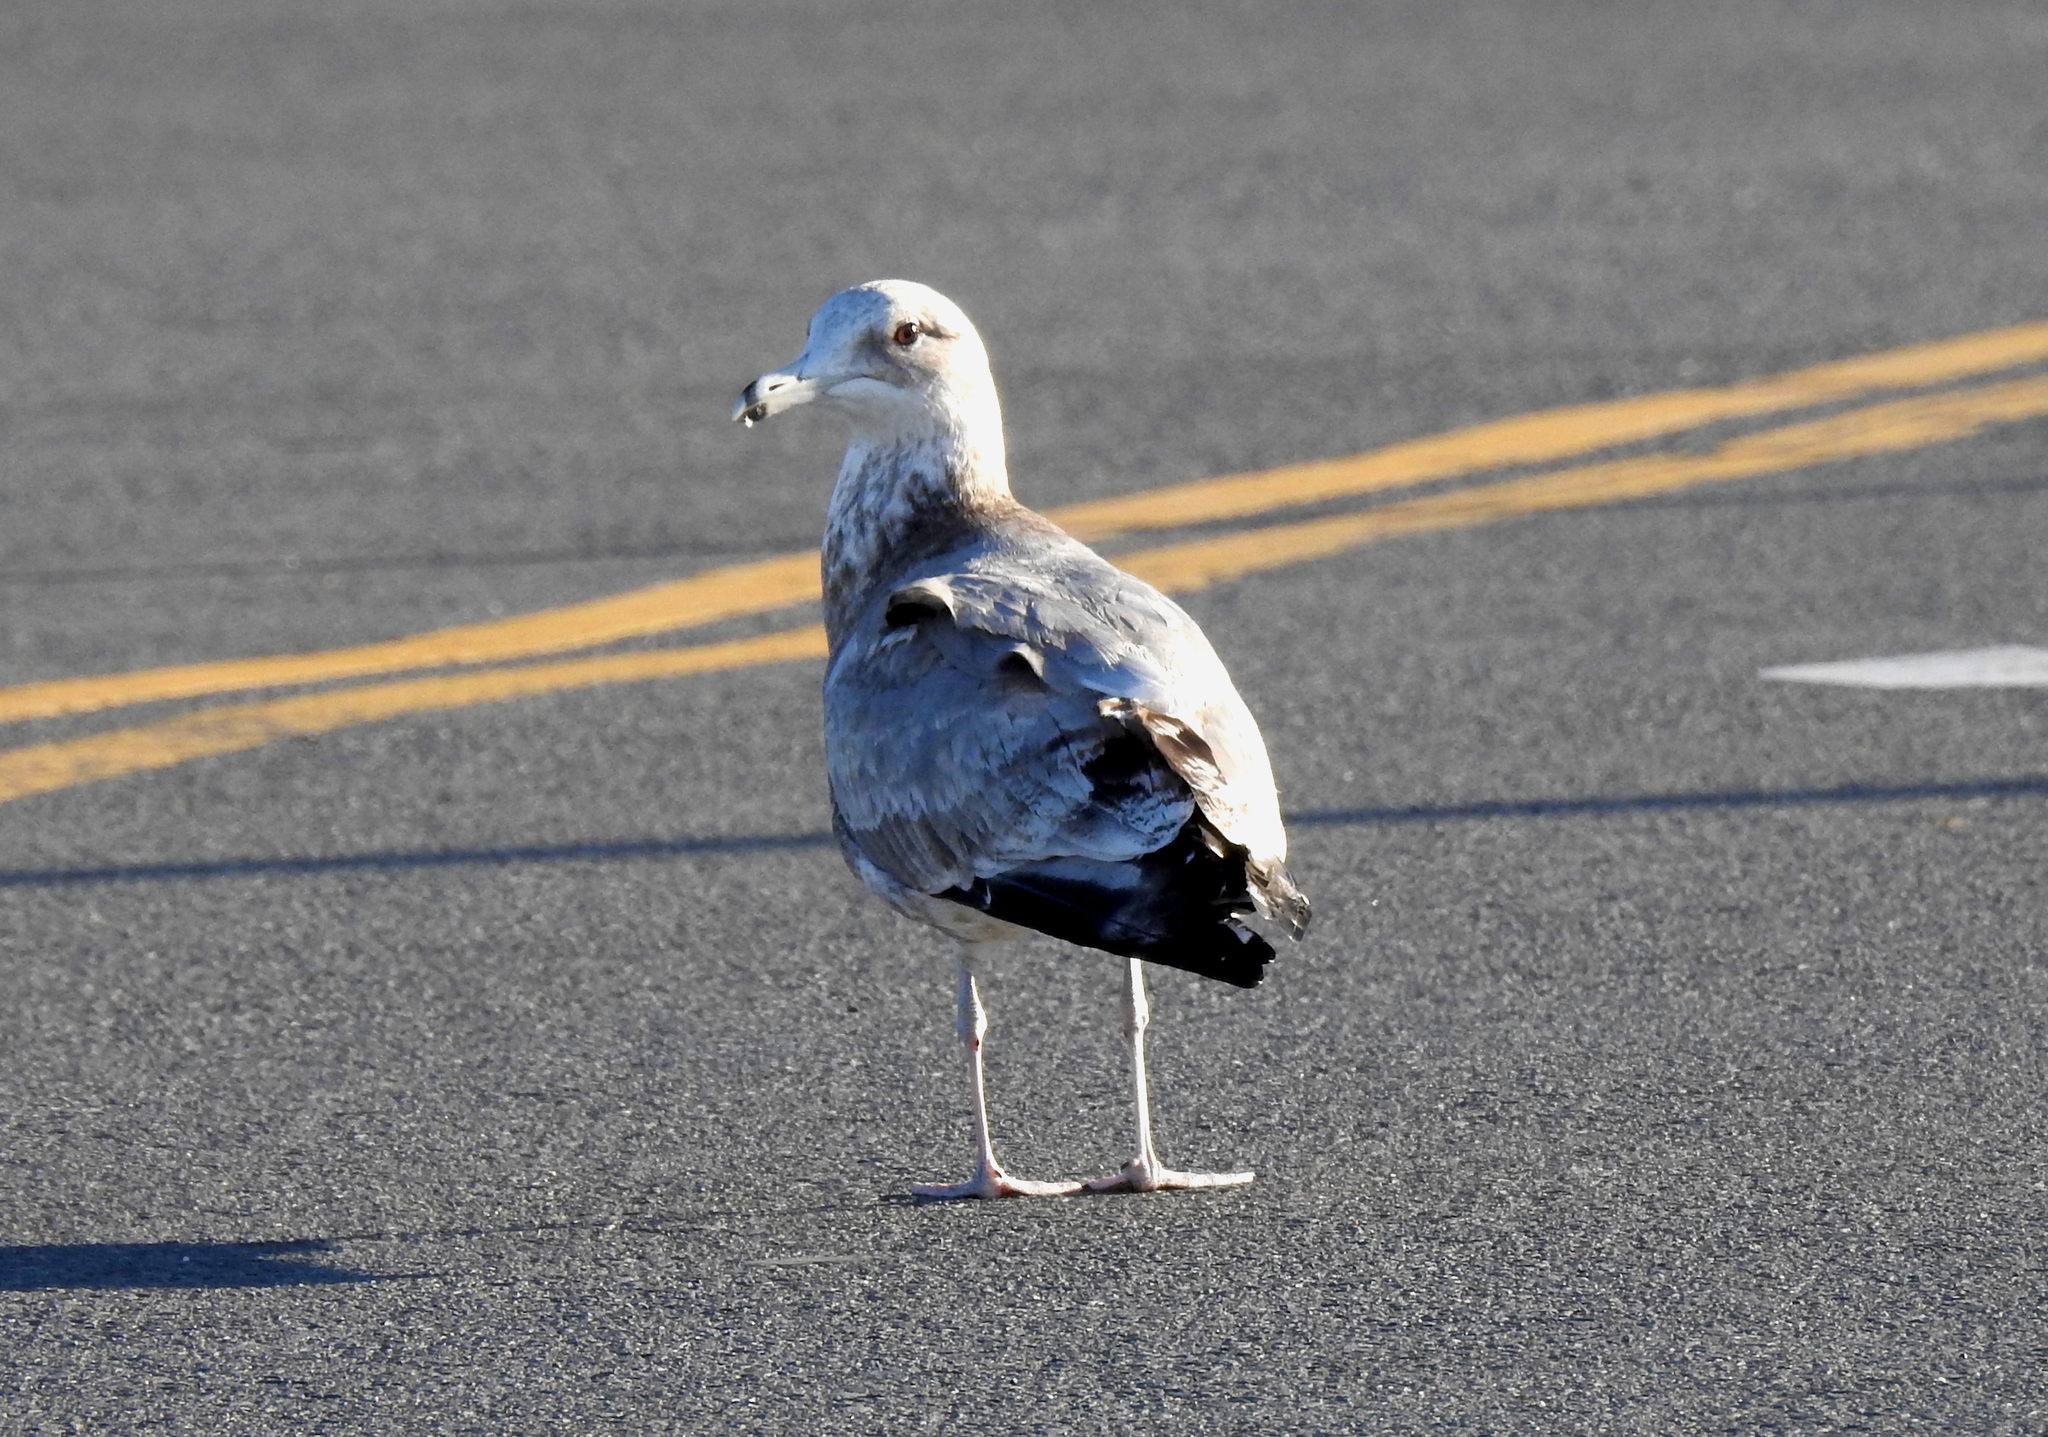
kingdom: Animalia
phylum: Chordata
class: Aves
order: Charadriiformes
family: Laridae
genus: Larus
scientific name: Larus occidentalis
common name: Western gull
